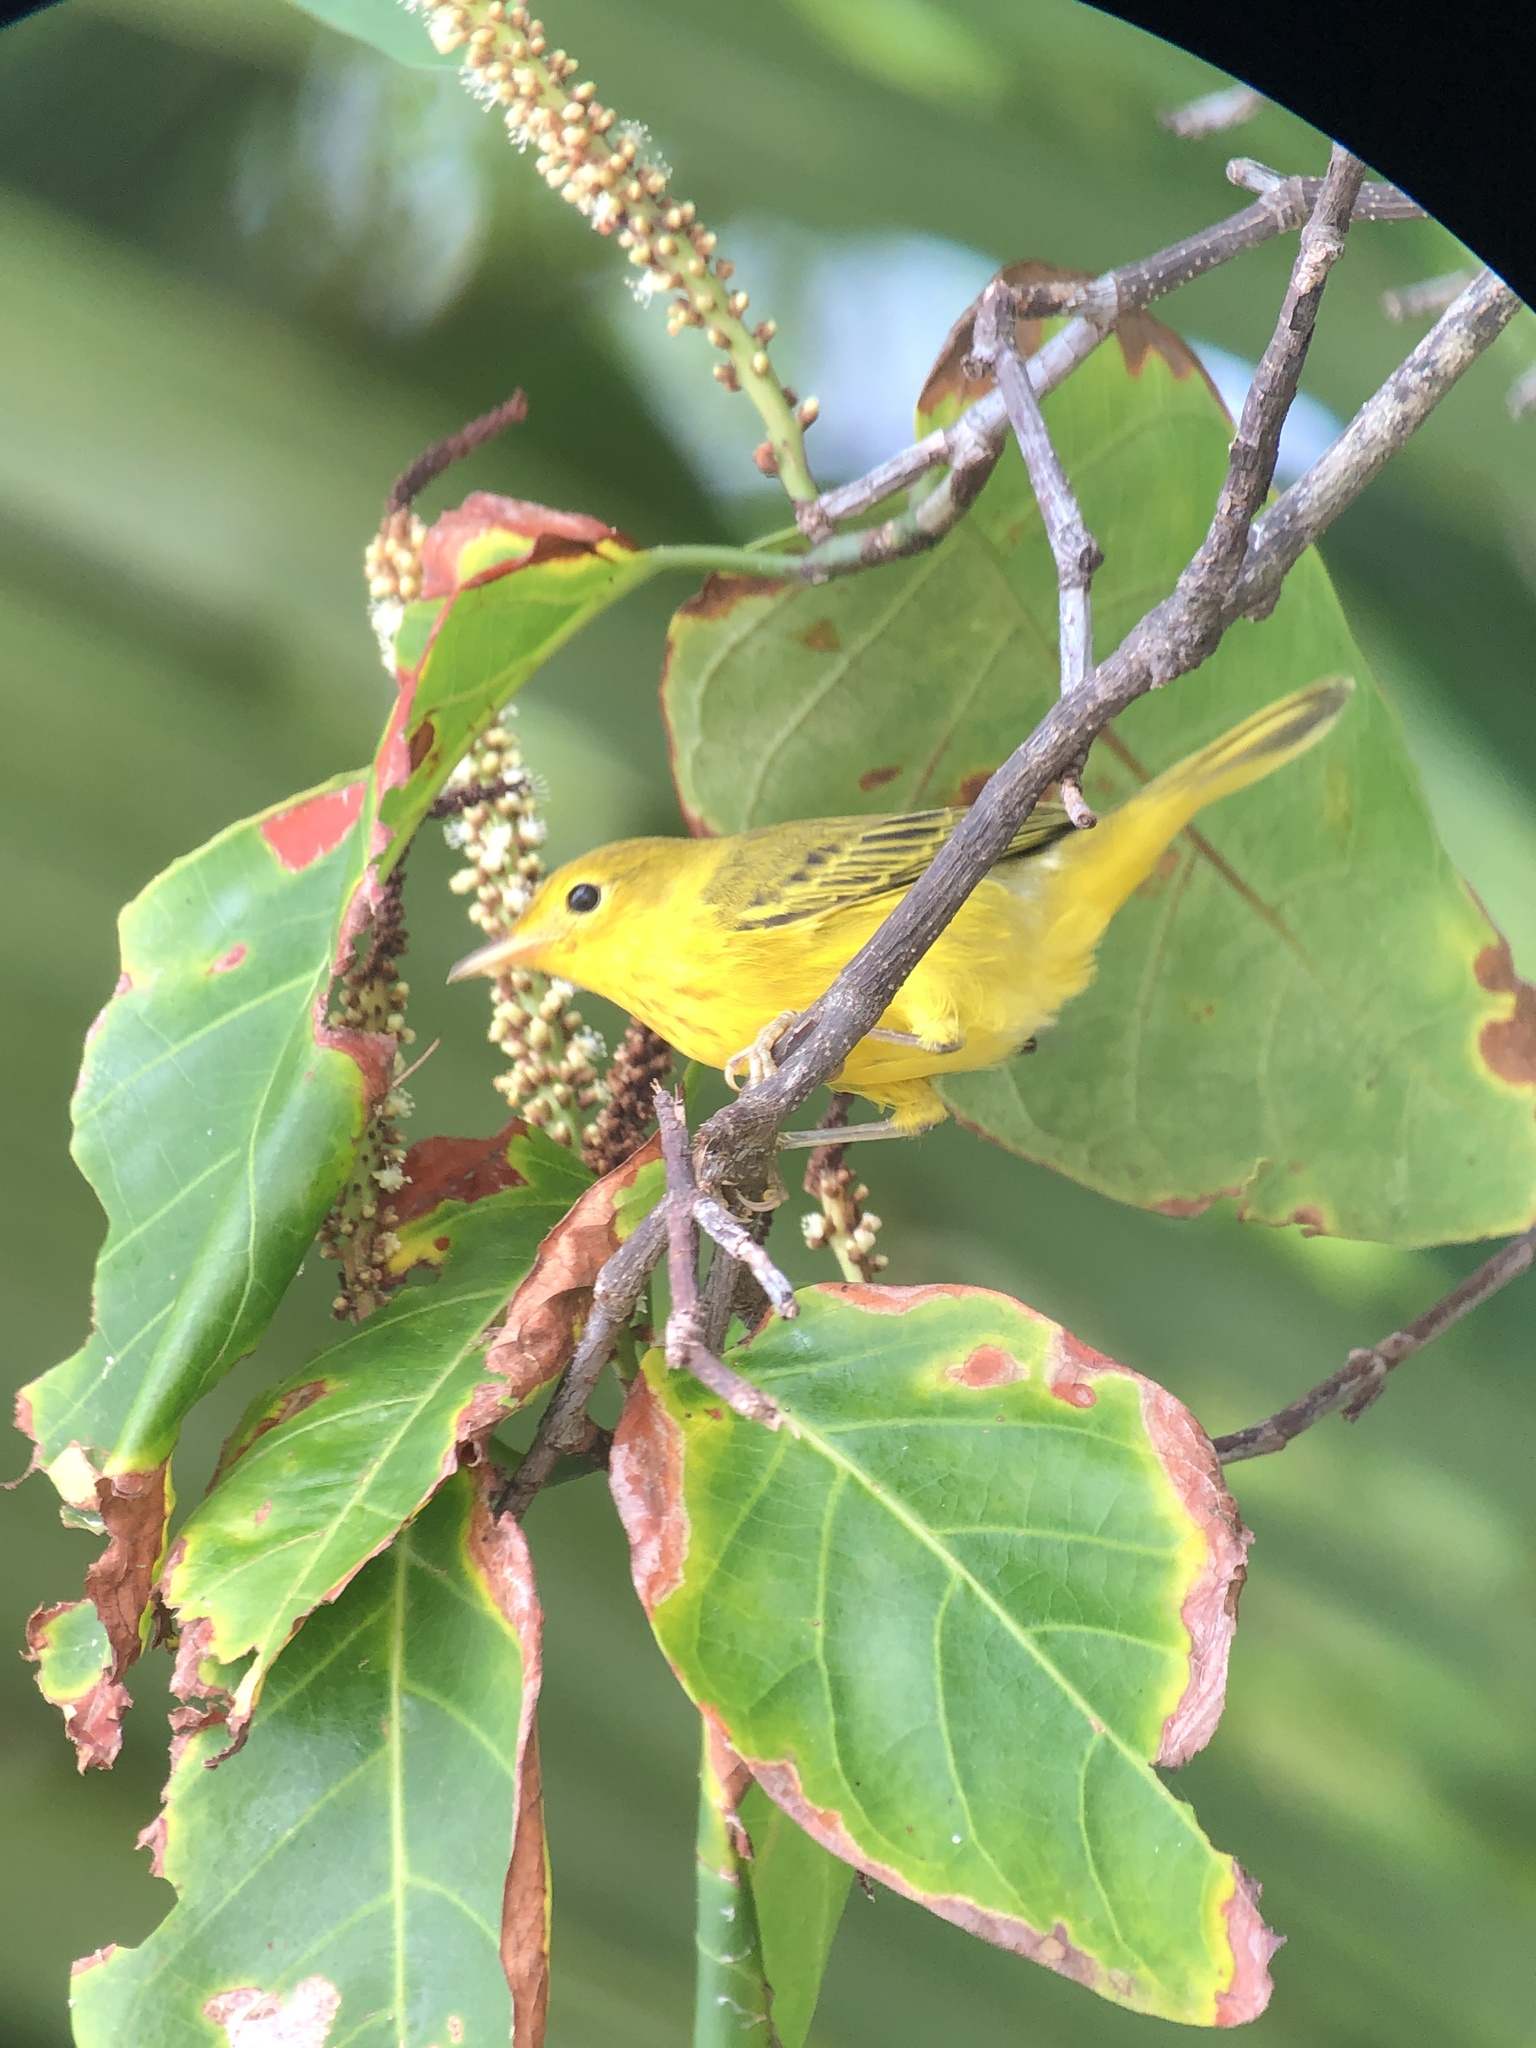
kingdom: Animalia
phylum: Chordata
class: Aves
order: Passeriformes
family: Parulidae
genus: Setophaga
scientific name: Setophaga petechia
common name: Yellow warbler
